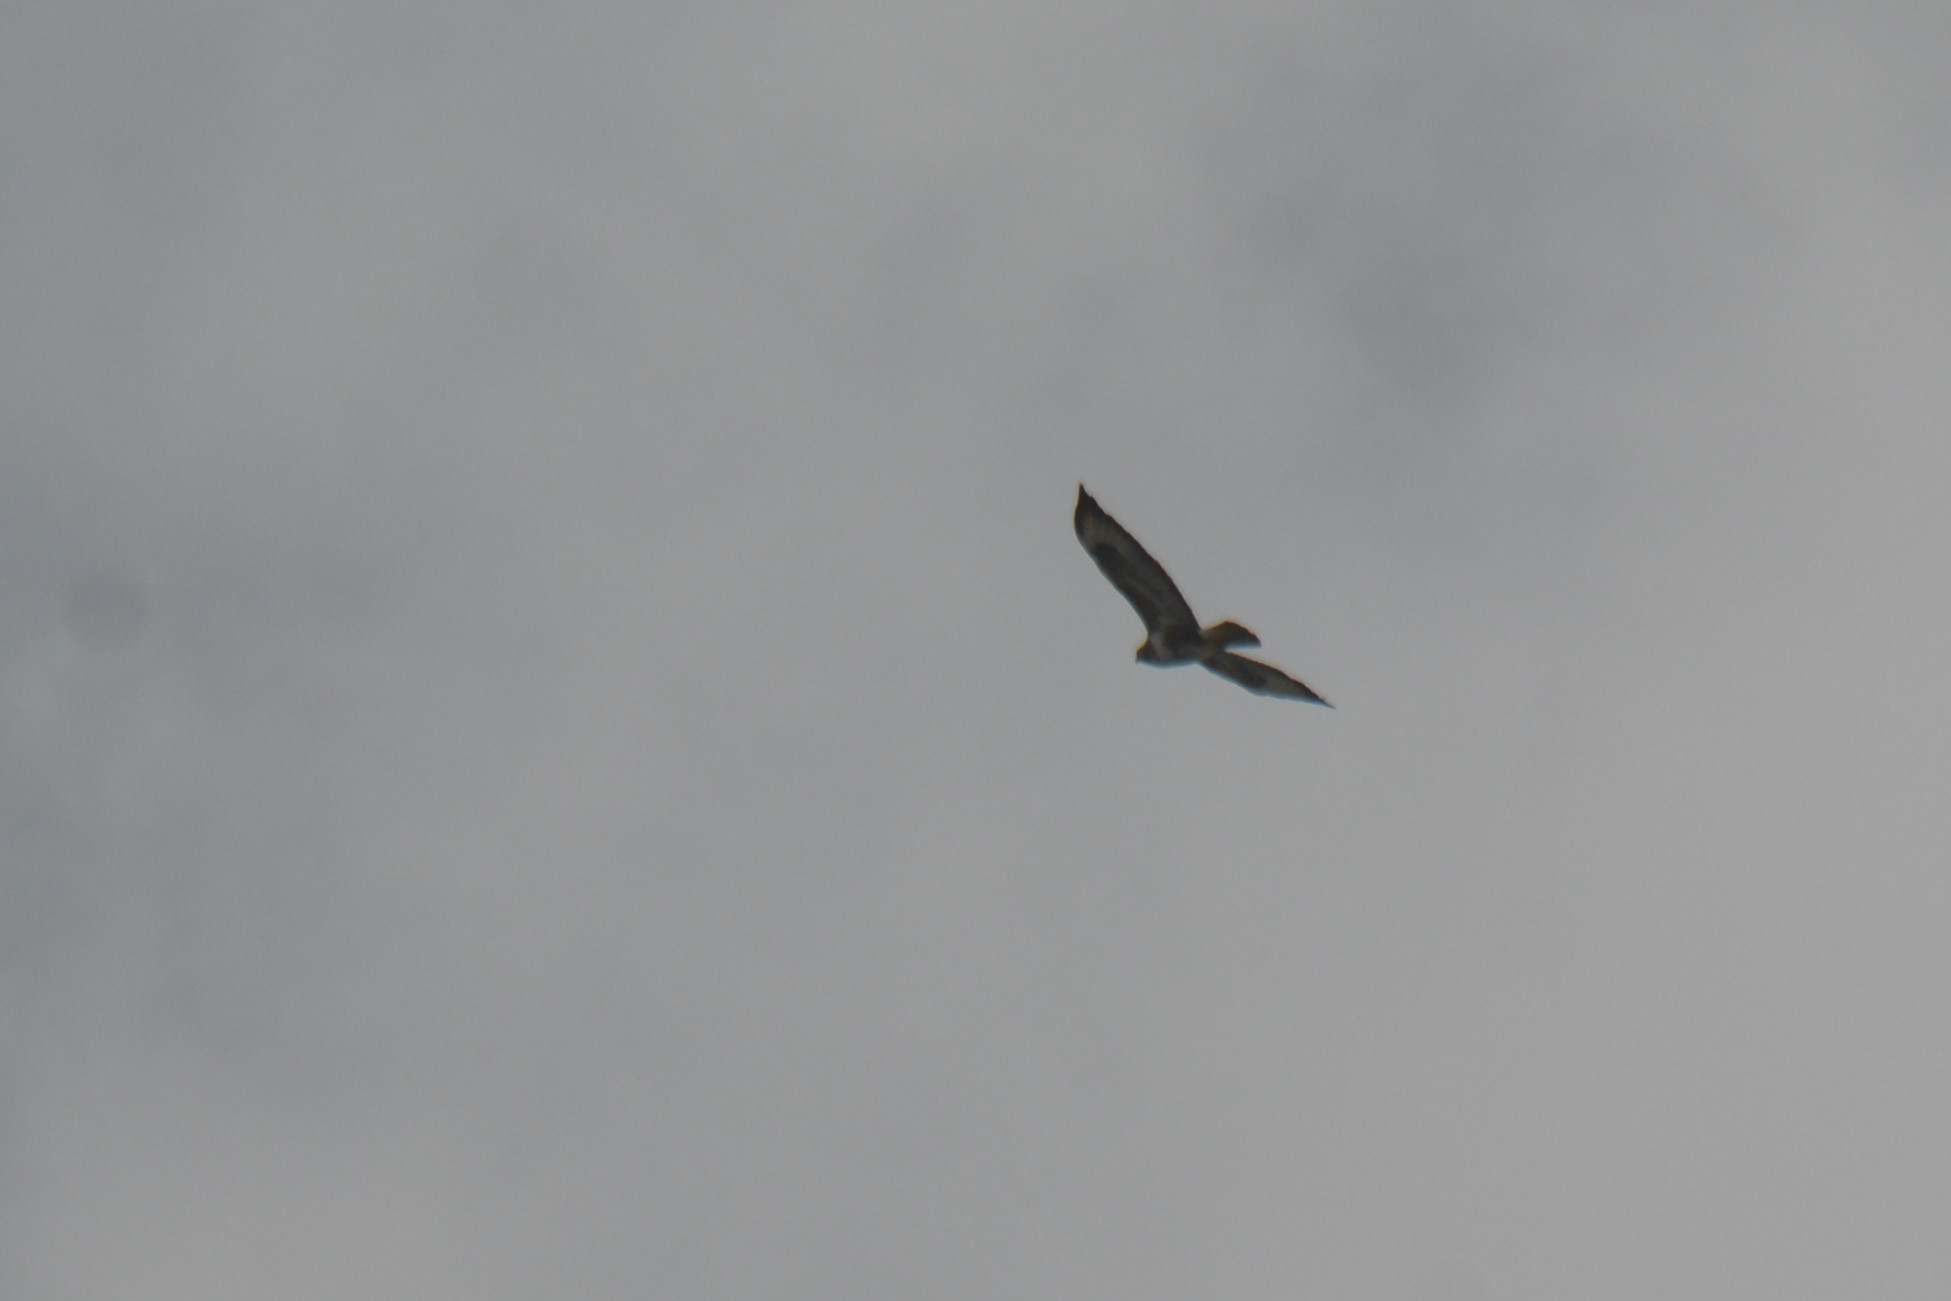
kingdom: Animalia
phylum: Chordata
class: Aves
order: Accipitriformes
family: Accipitridae
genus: Buteo
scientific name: Buteo buteo
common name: Common buzzard
